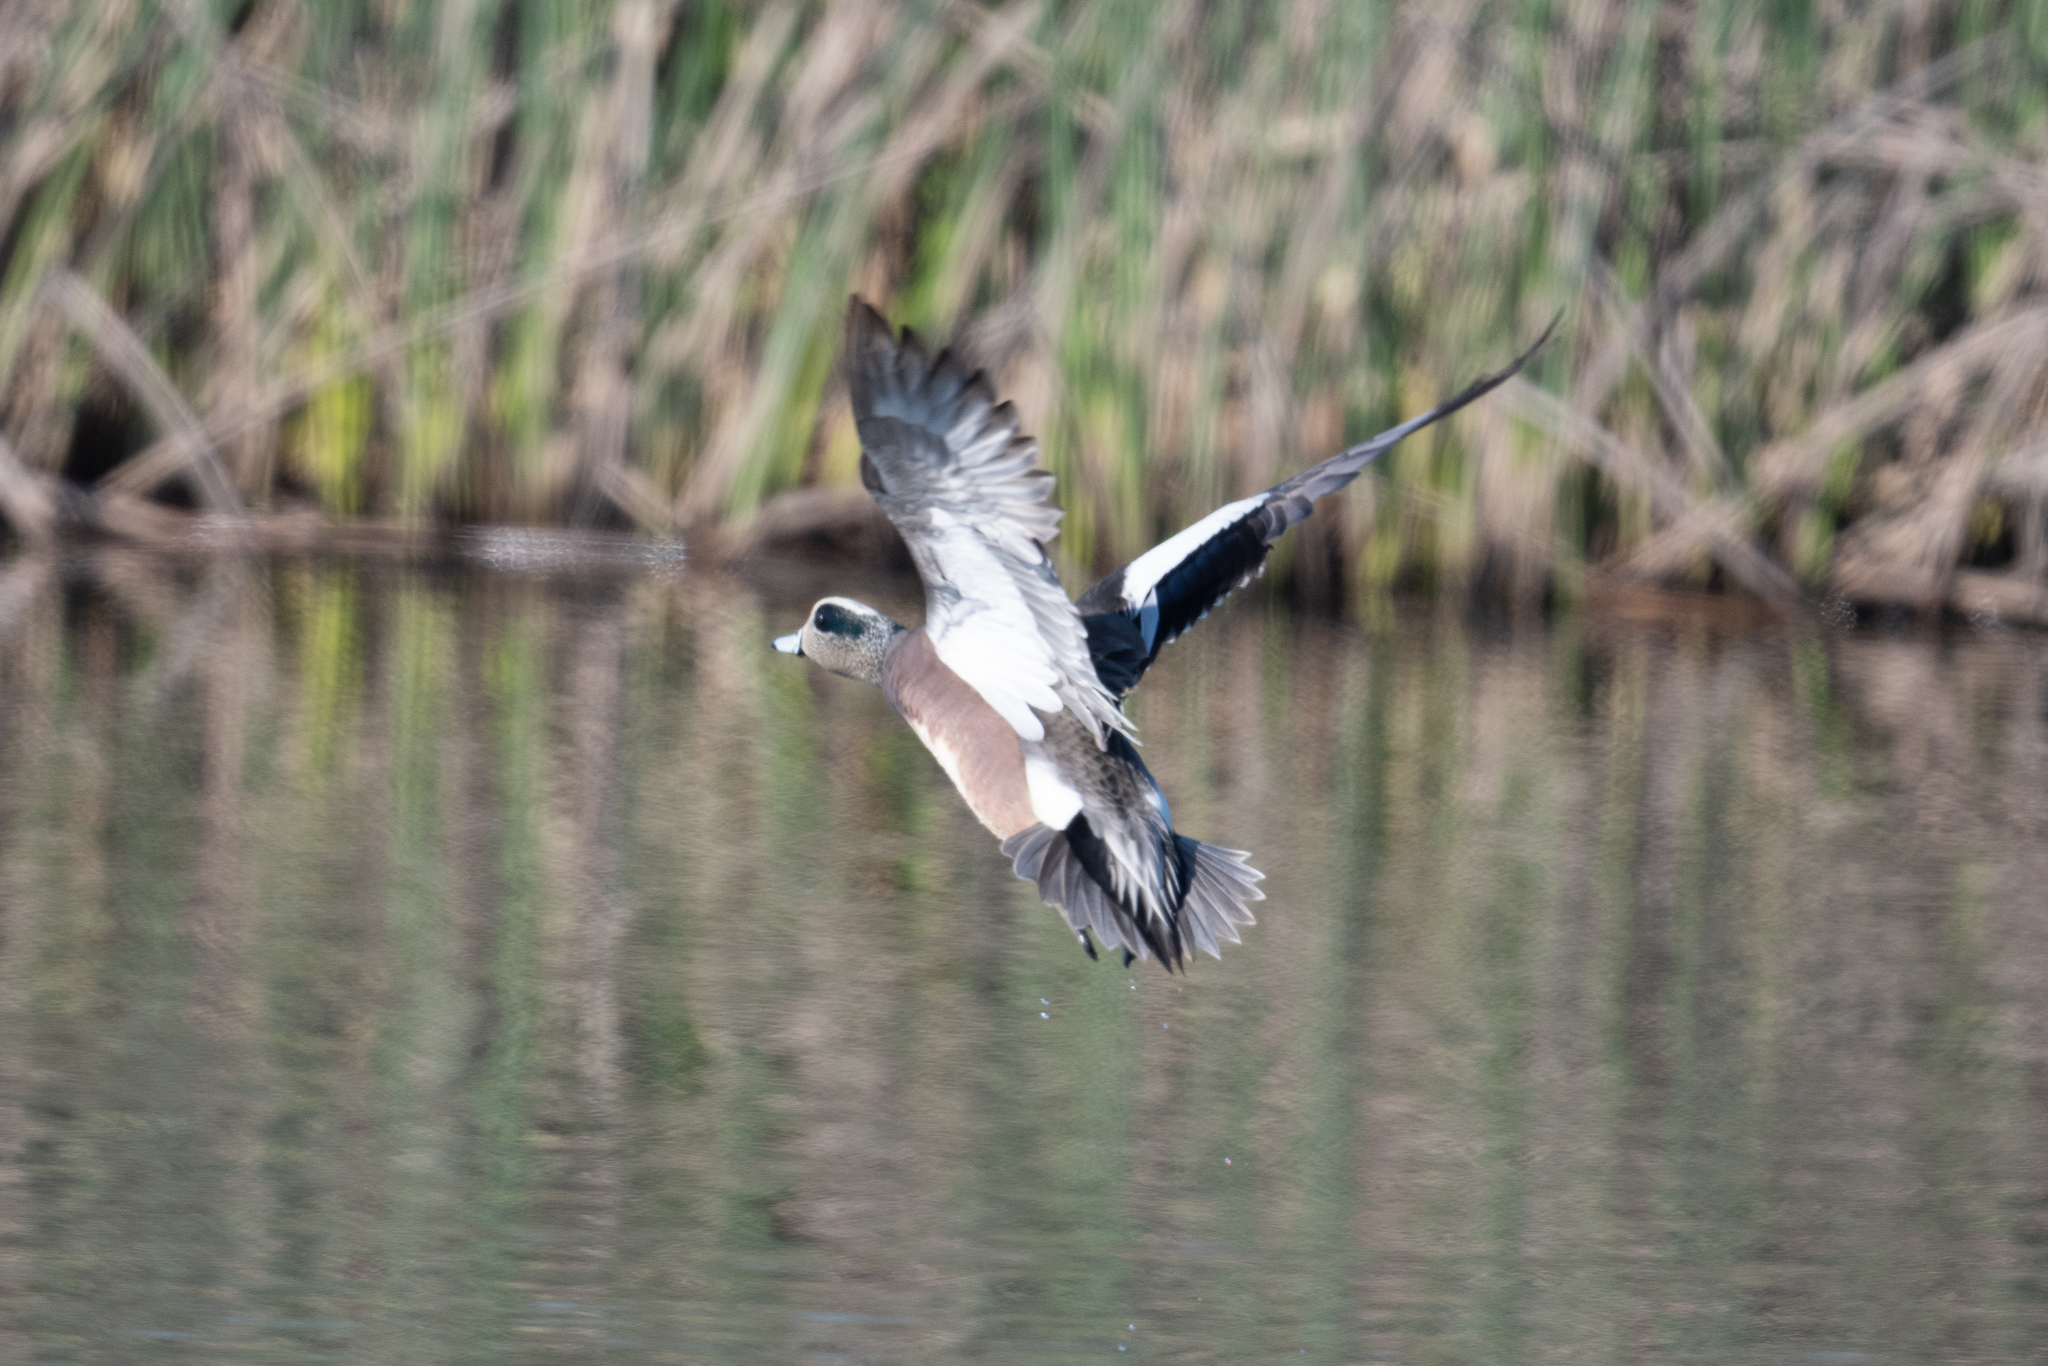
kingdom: Animalia
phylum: Chordata
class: Aves
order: Anseriformes
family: Anatidae
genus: Mareca
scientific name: Mareca americana
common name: American wigeon
